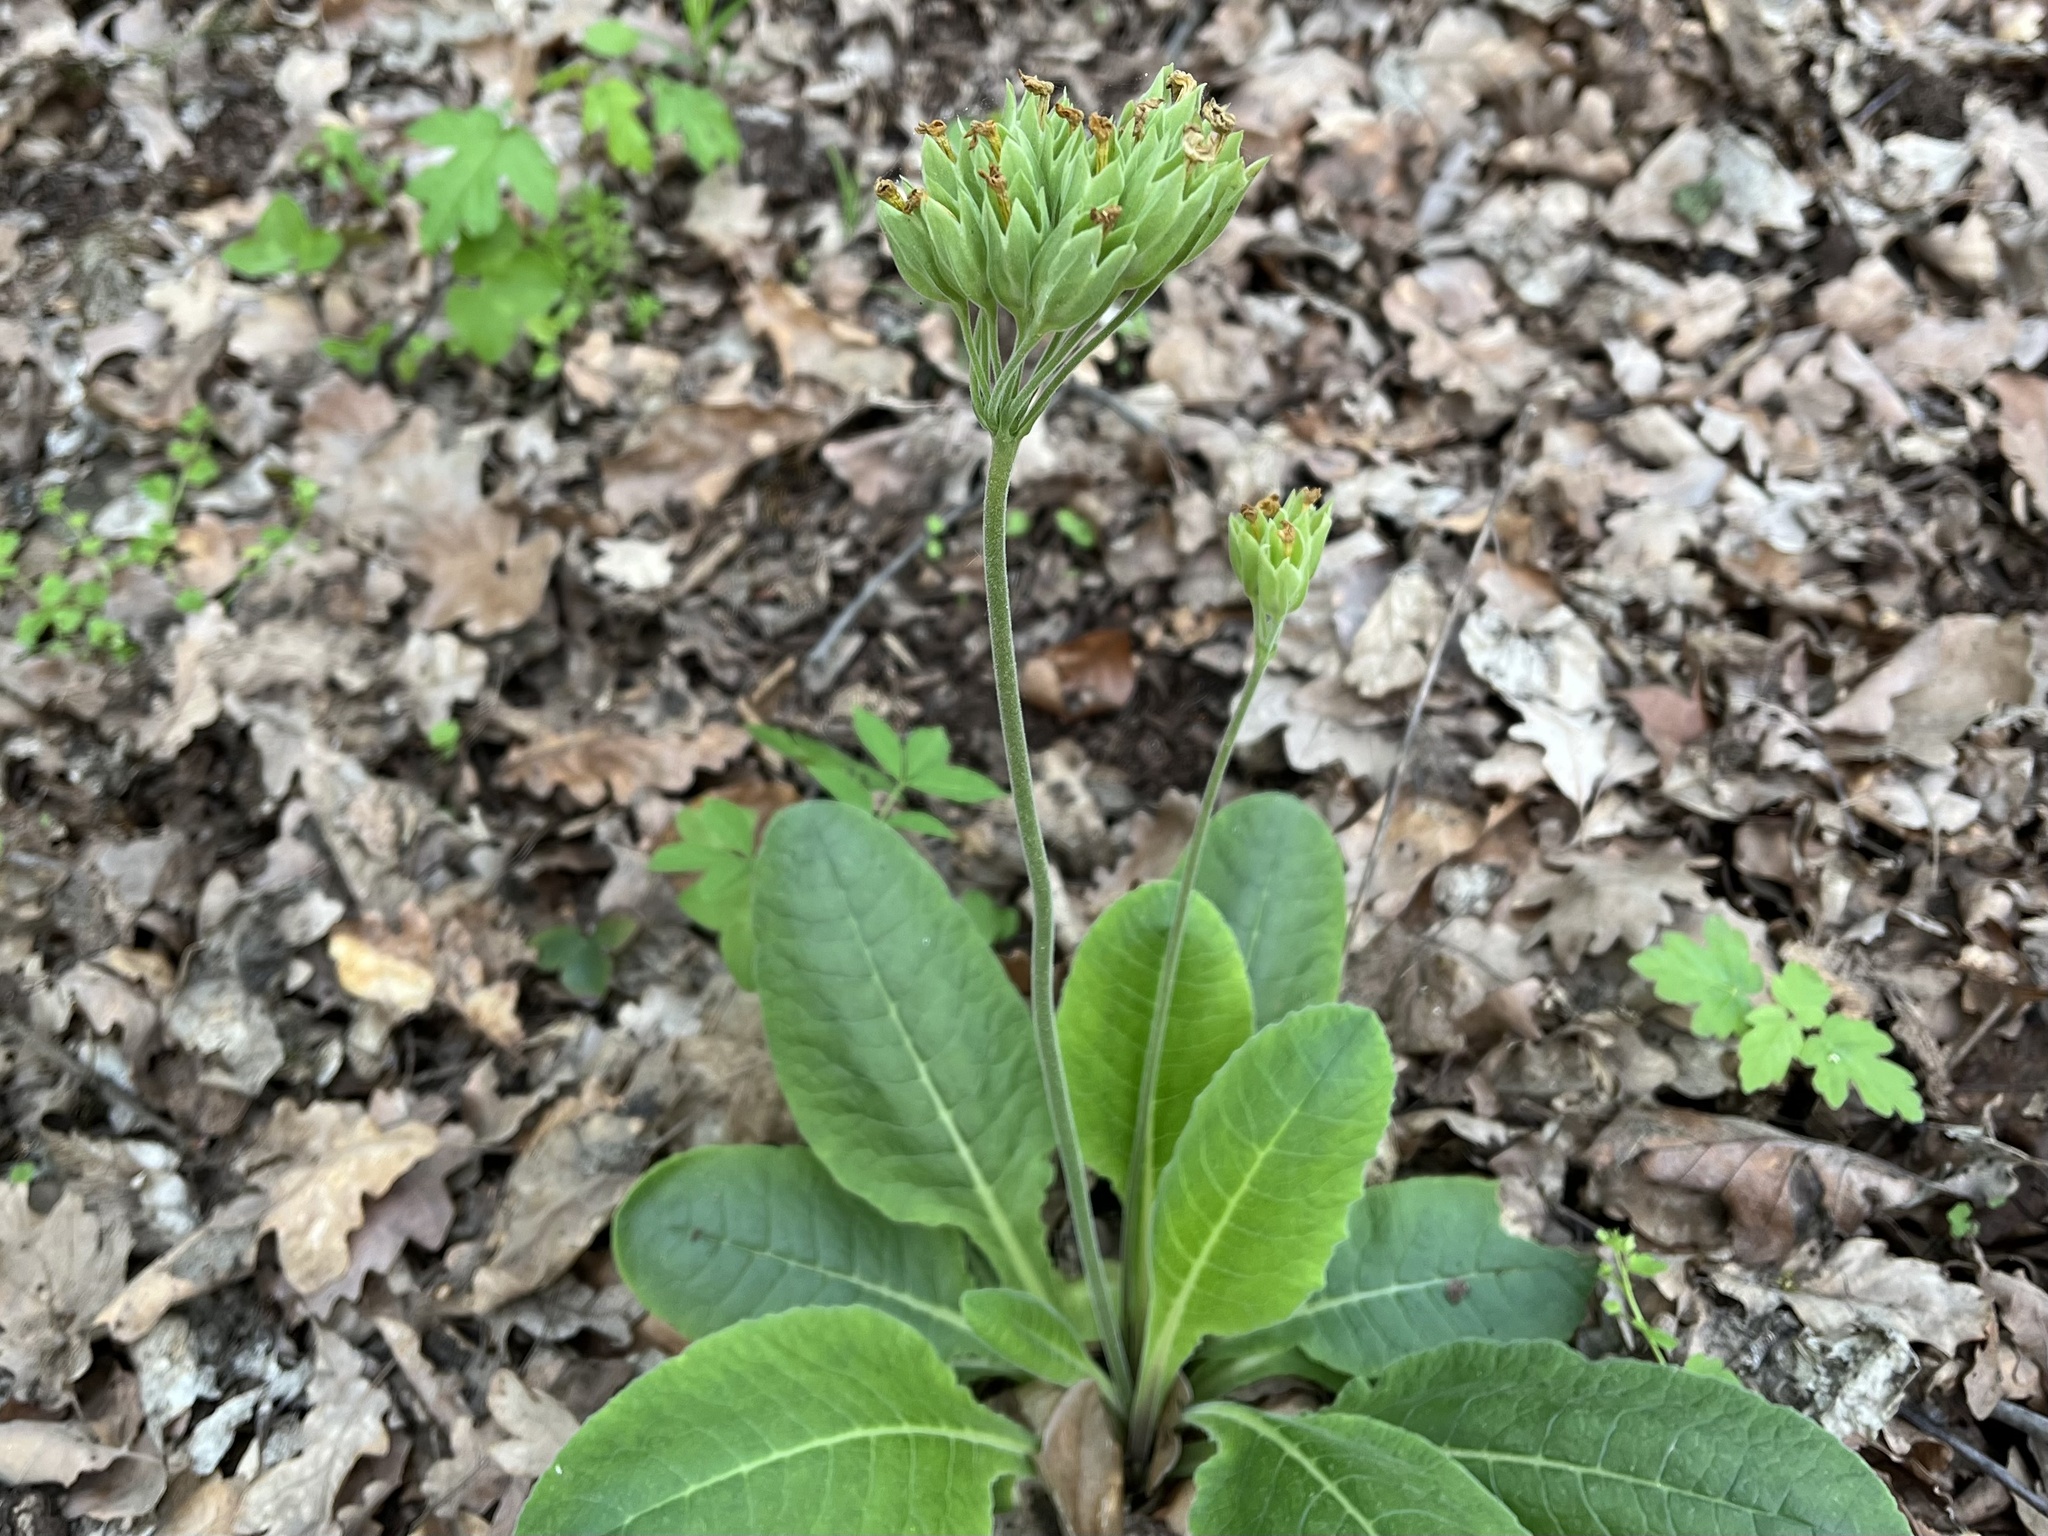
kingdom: Plantae
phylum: Tracheophyta
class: Magnoliopsida
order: Ericales
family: Primulaceae
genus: Primula
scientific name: Primula veris
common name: Cowslip
